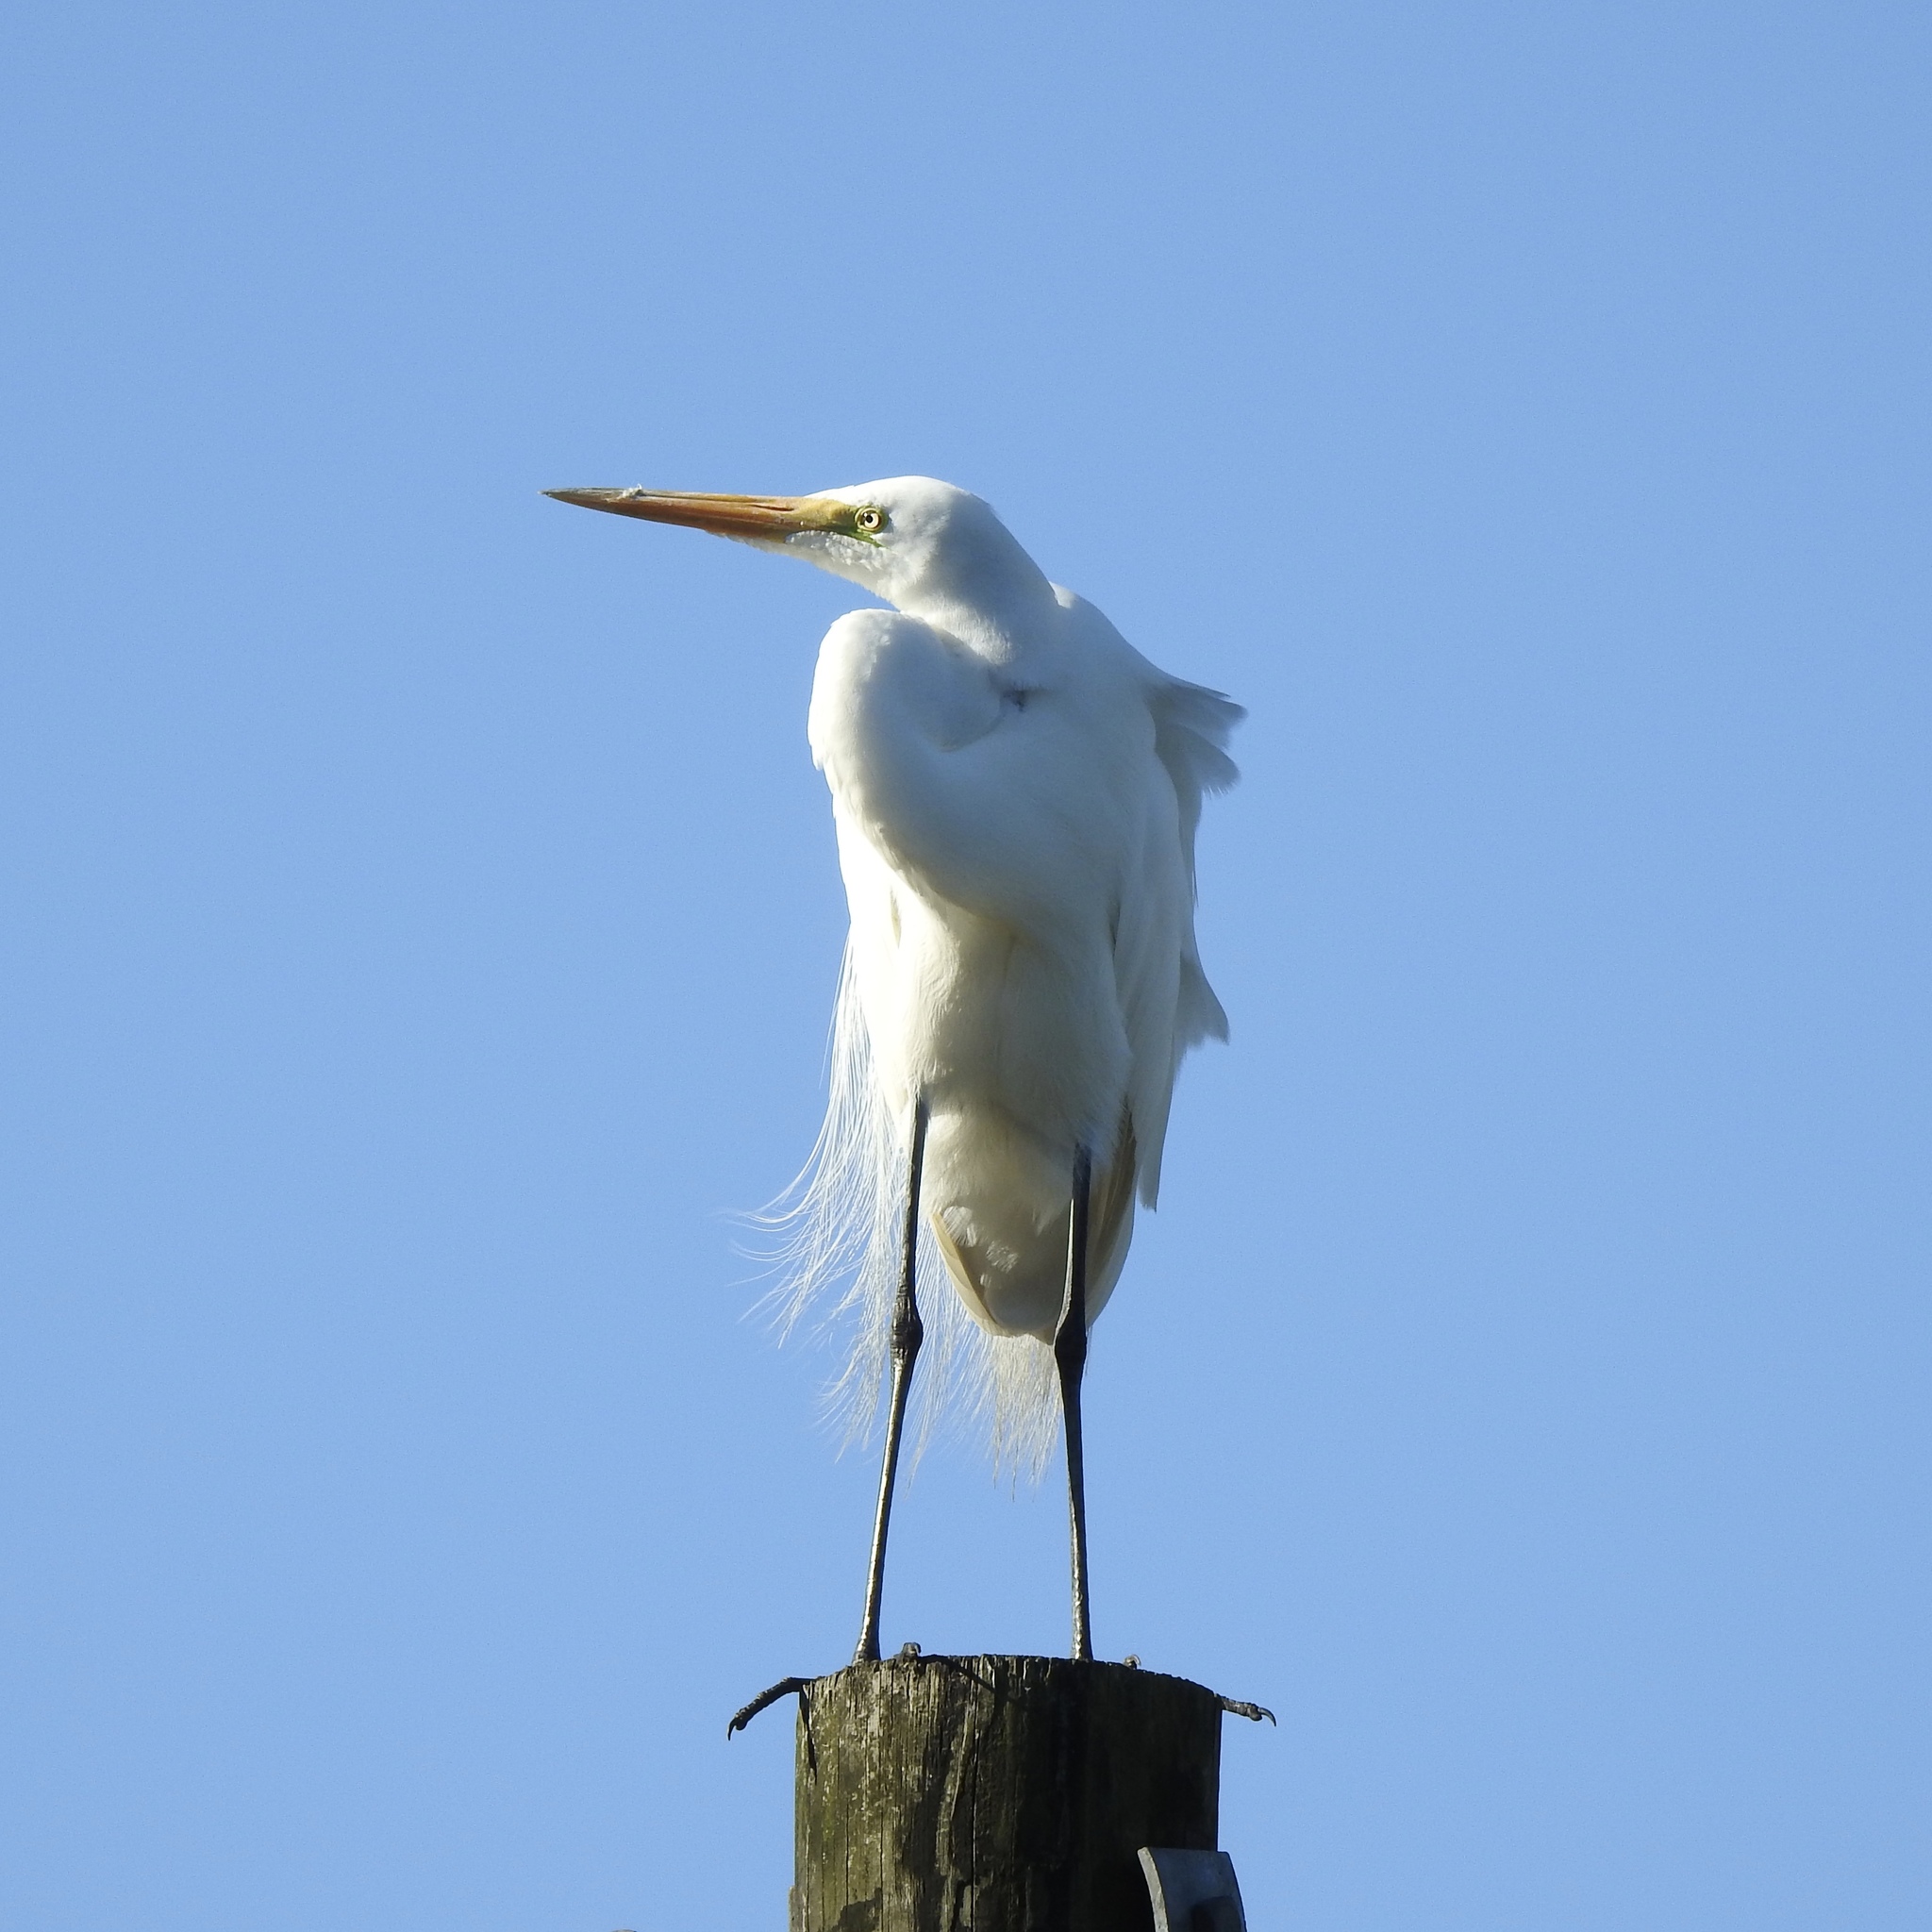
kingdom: Animalia
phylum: Chordata
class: Aves
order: Pelecaniformes
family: Ardeidae
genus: Ardea
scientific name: Ardea alba
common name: Great egret
